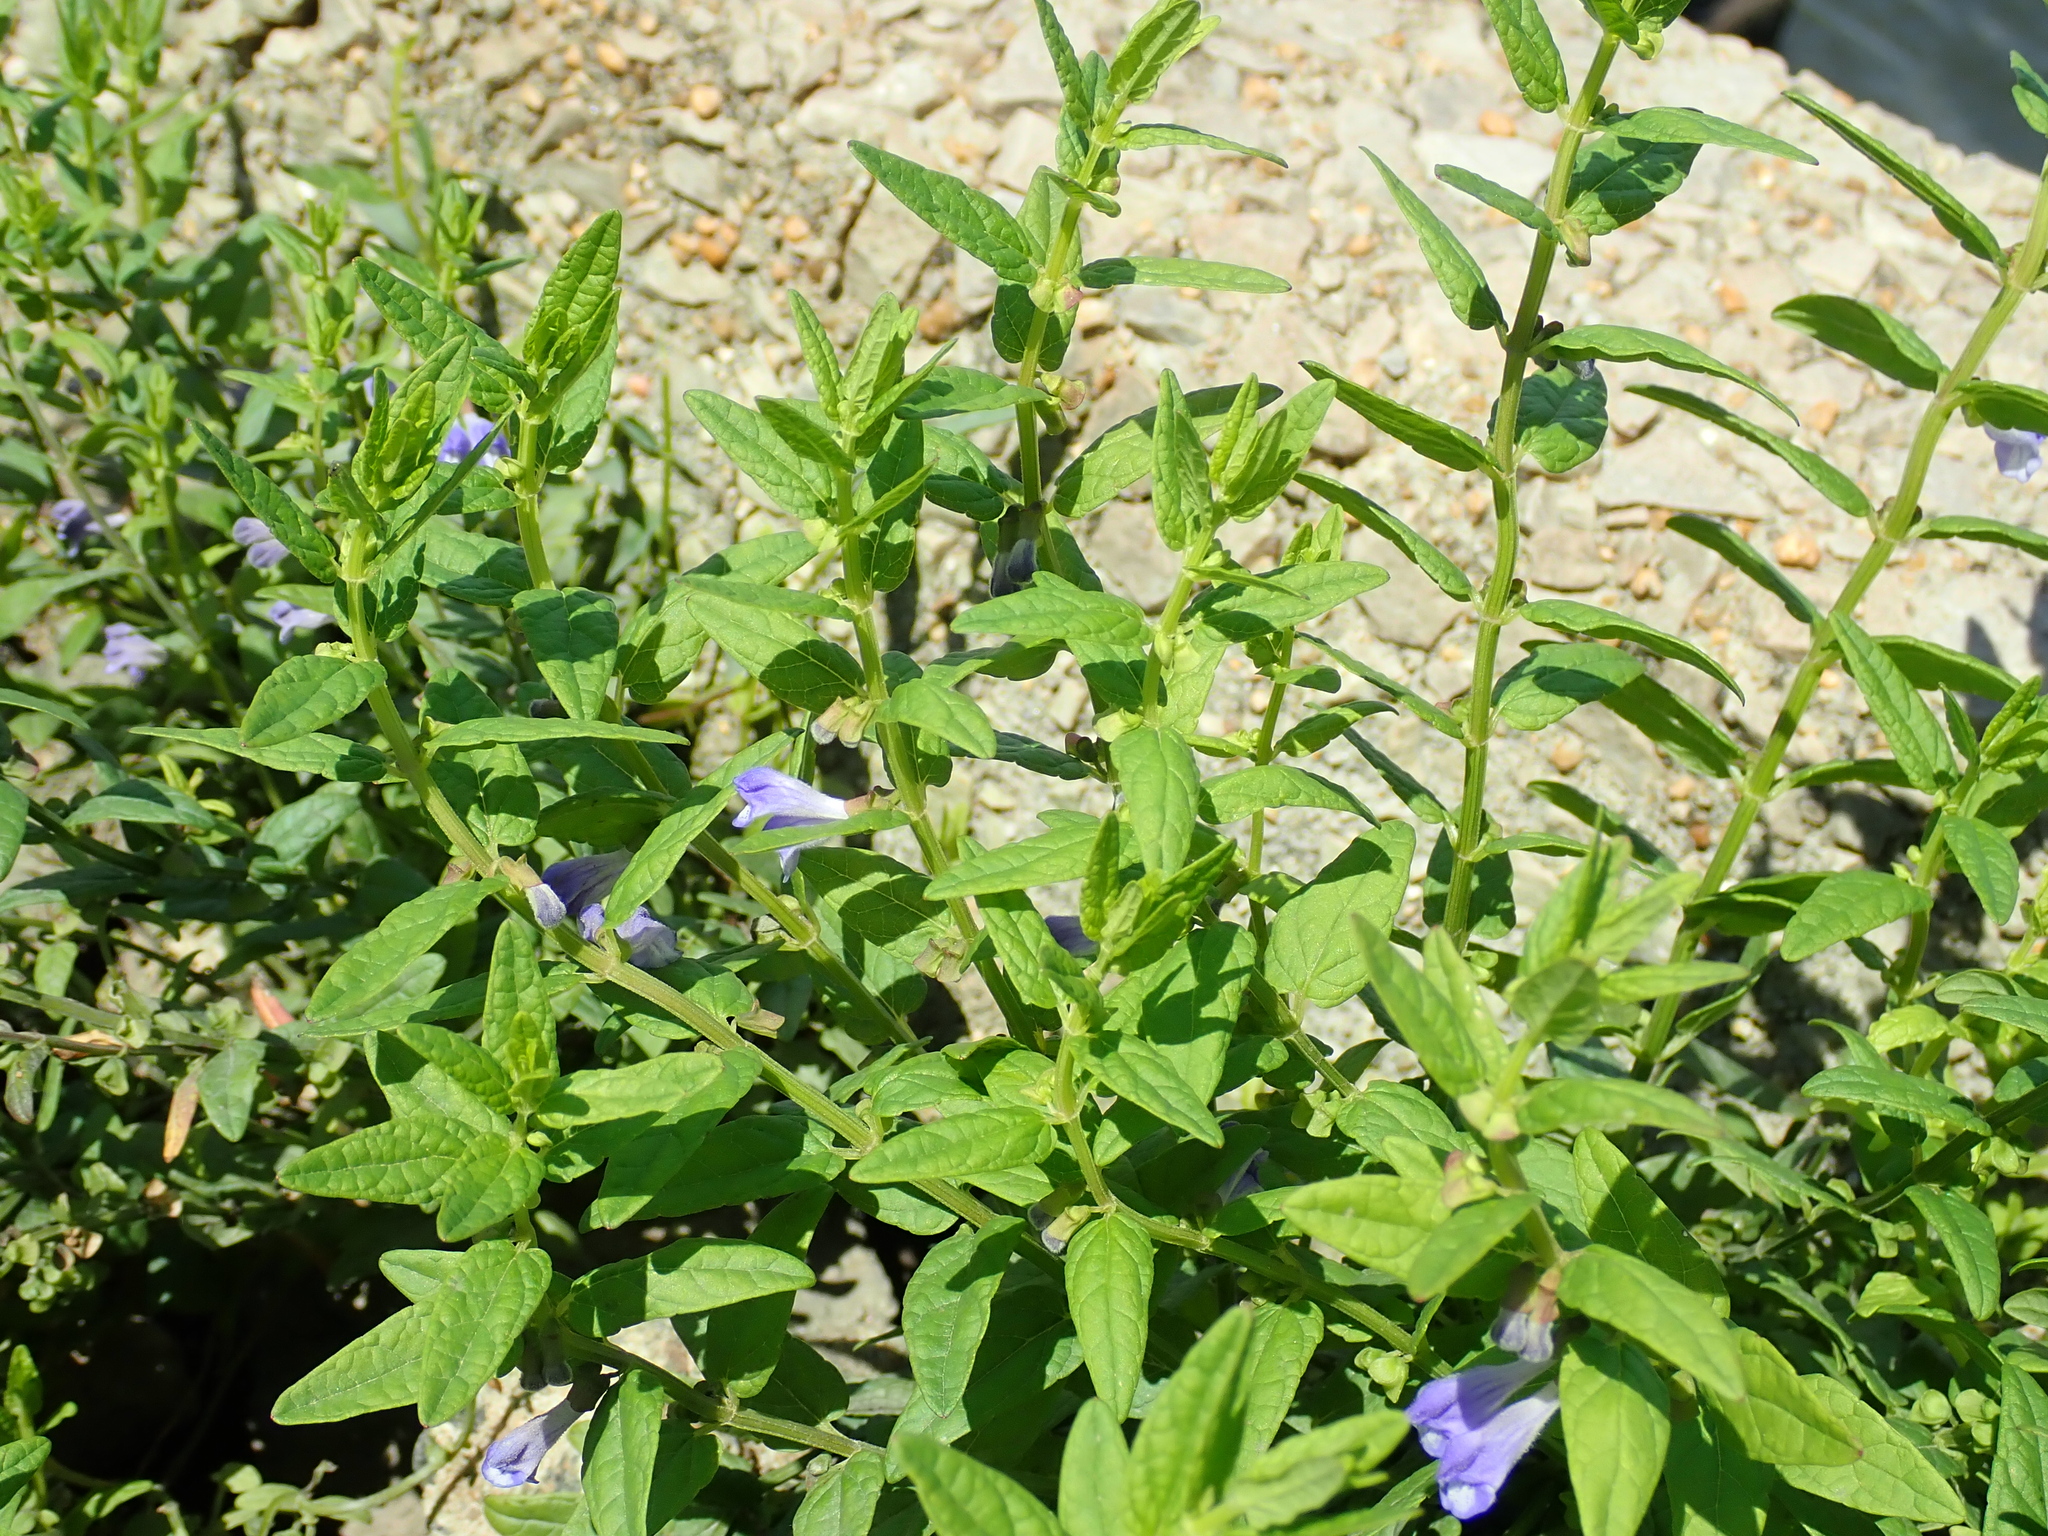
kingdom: Plantae
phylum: Tracheophyta
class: Magnoliopsida
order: Lamiales
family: Lamiaceae
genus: Scutellaria
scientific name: Scutellaria galericulata
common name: Skullcap
